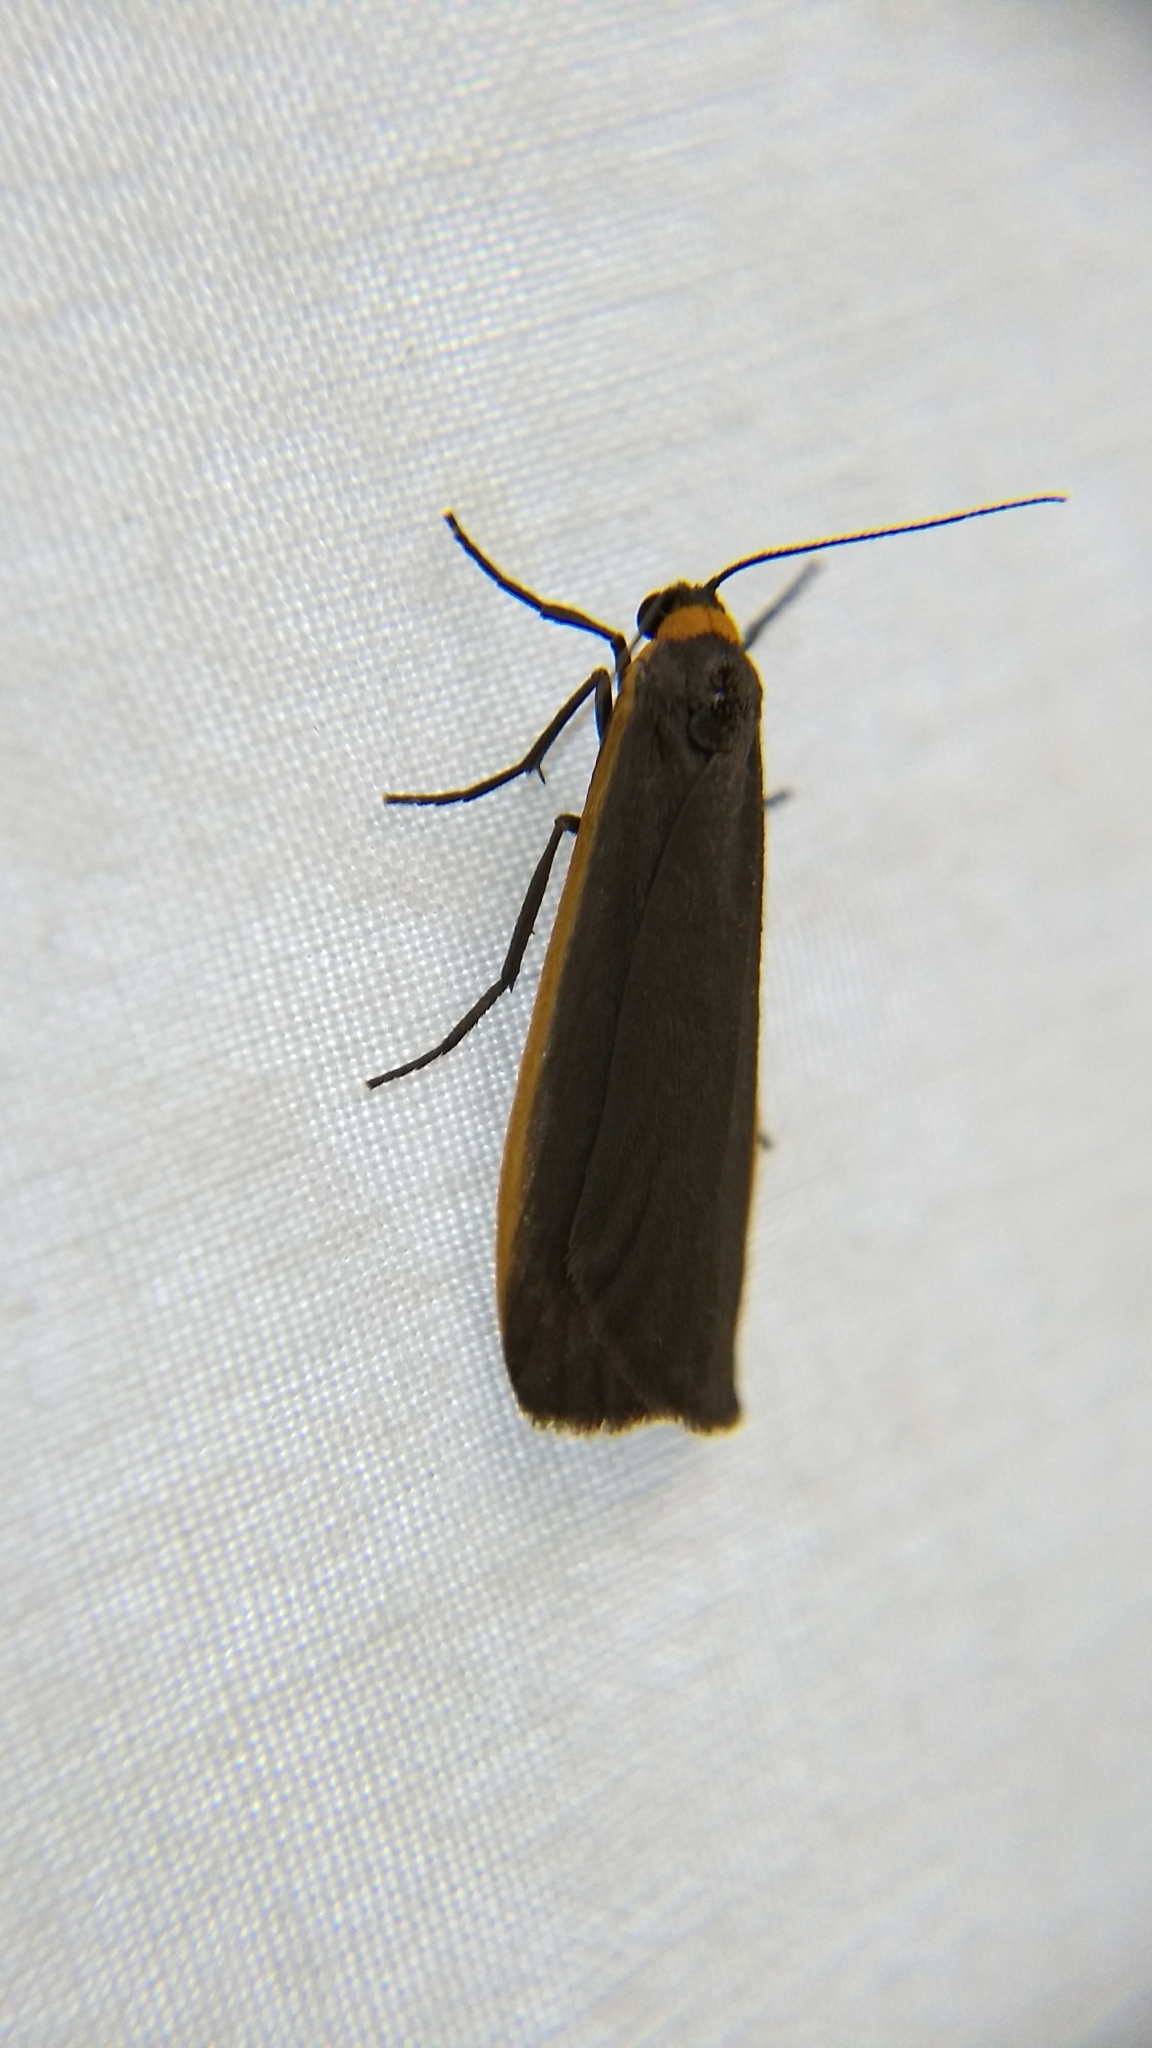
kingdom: Animalia
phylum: Arthropoda
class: Insecta
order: Lepidoptera
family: Erebidae
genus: Manulea
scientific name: Manulea bicolor
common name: Bicolored moth
